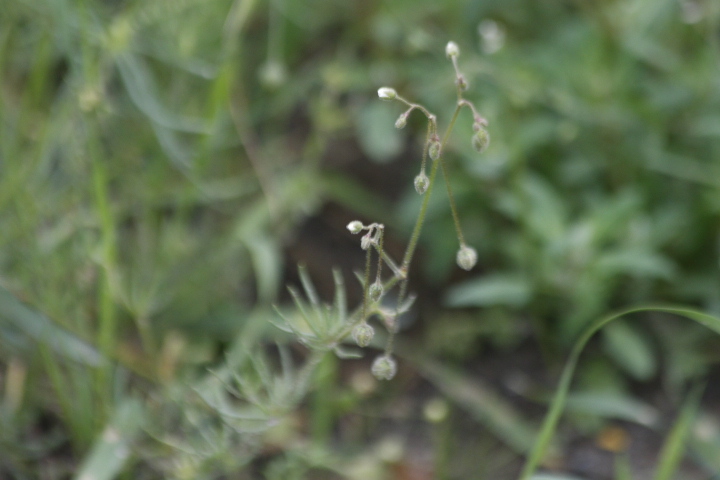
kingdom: Plantae
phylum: Tracheophyta
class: Magnoliopsida
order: Caryophyllales
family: Caryophyllaceae
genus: Spergula
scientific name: Spergula arvensis
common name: Corn spurrey
